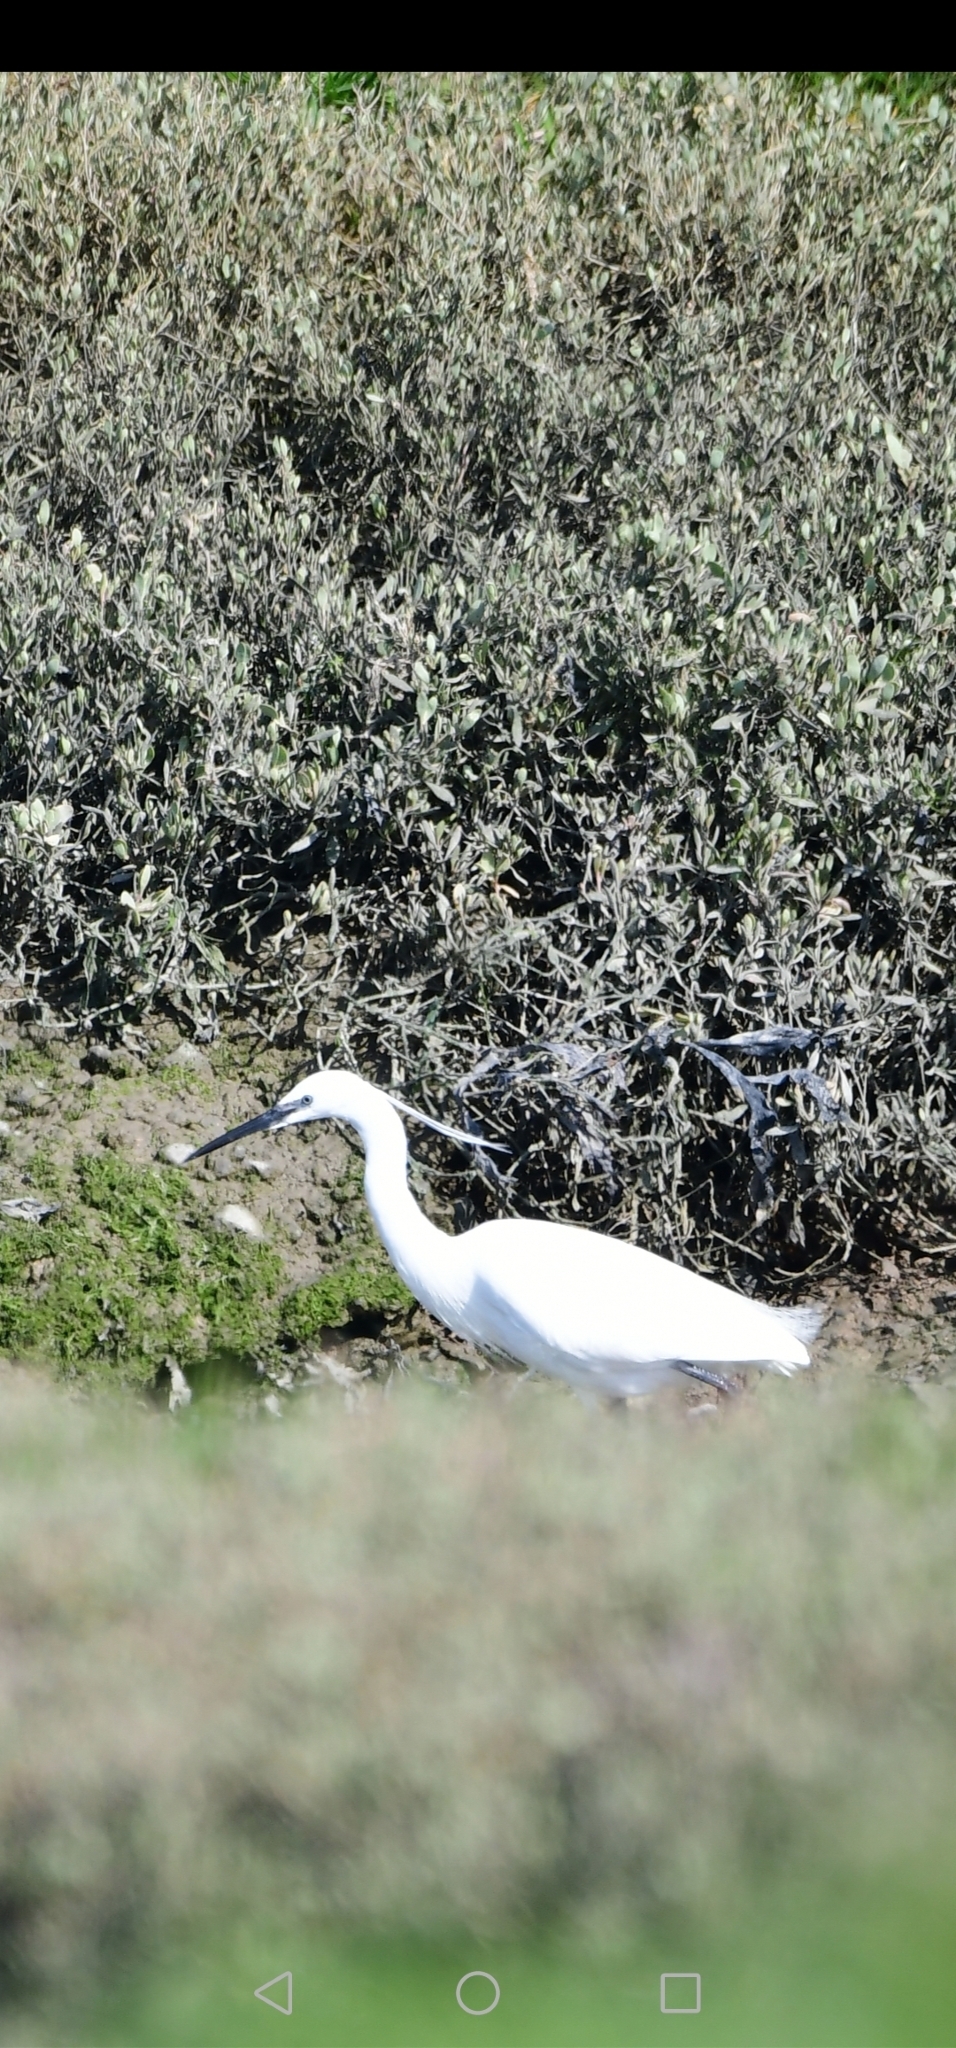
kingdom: Animalia
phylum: Chordata
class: Aves
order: Pelecaniformes
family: Ardeidae
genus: Egretta
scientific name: Egretta garzetta
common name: Little egret
